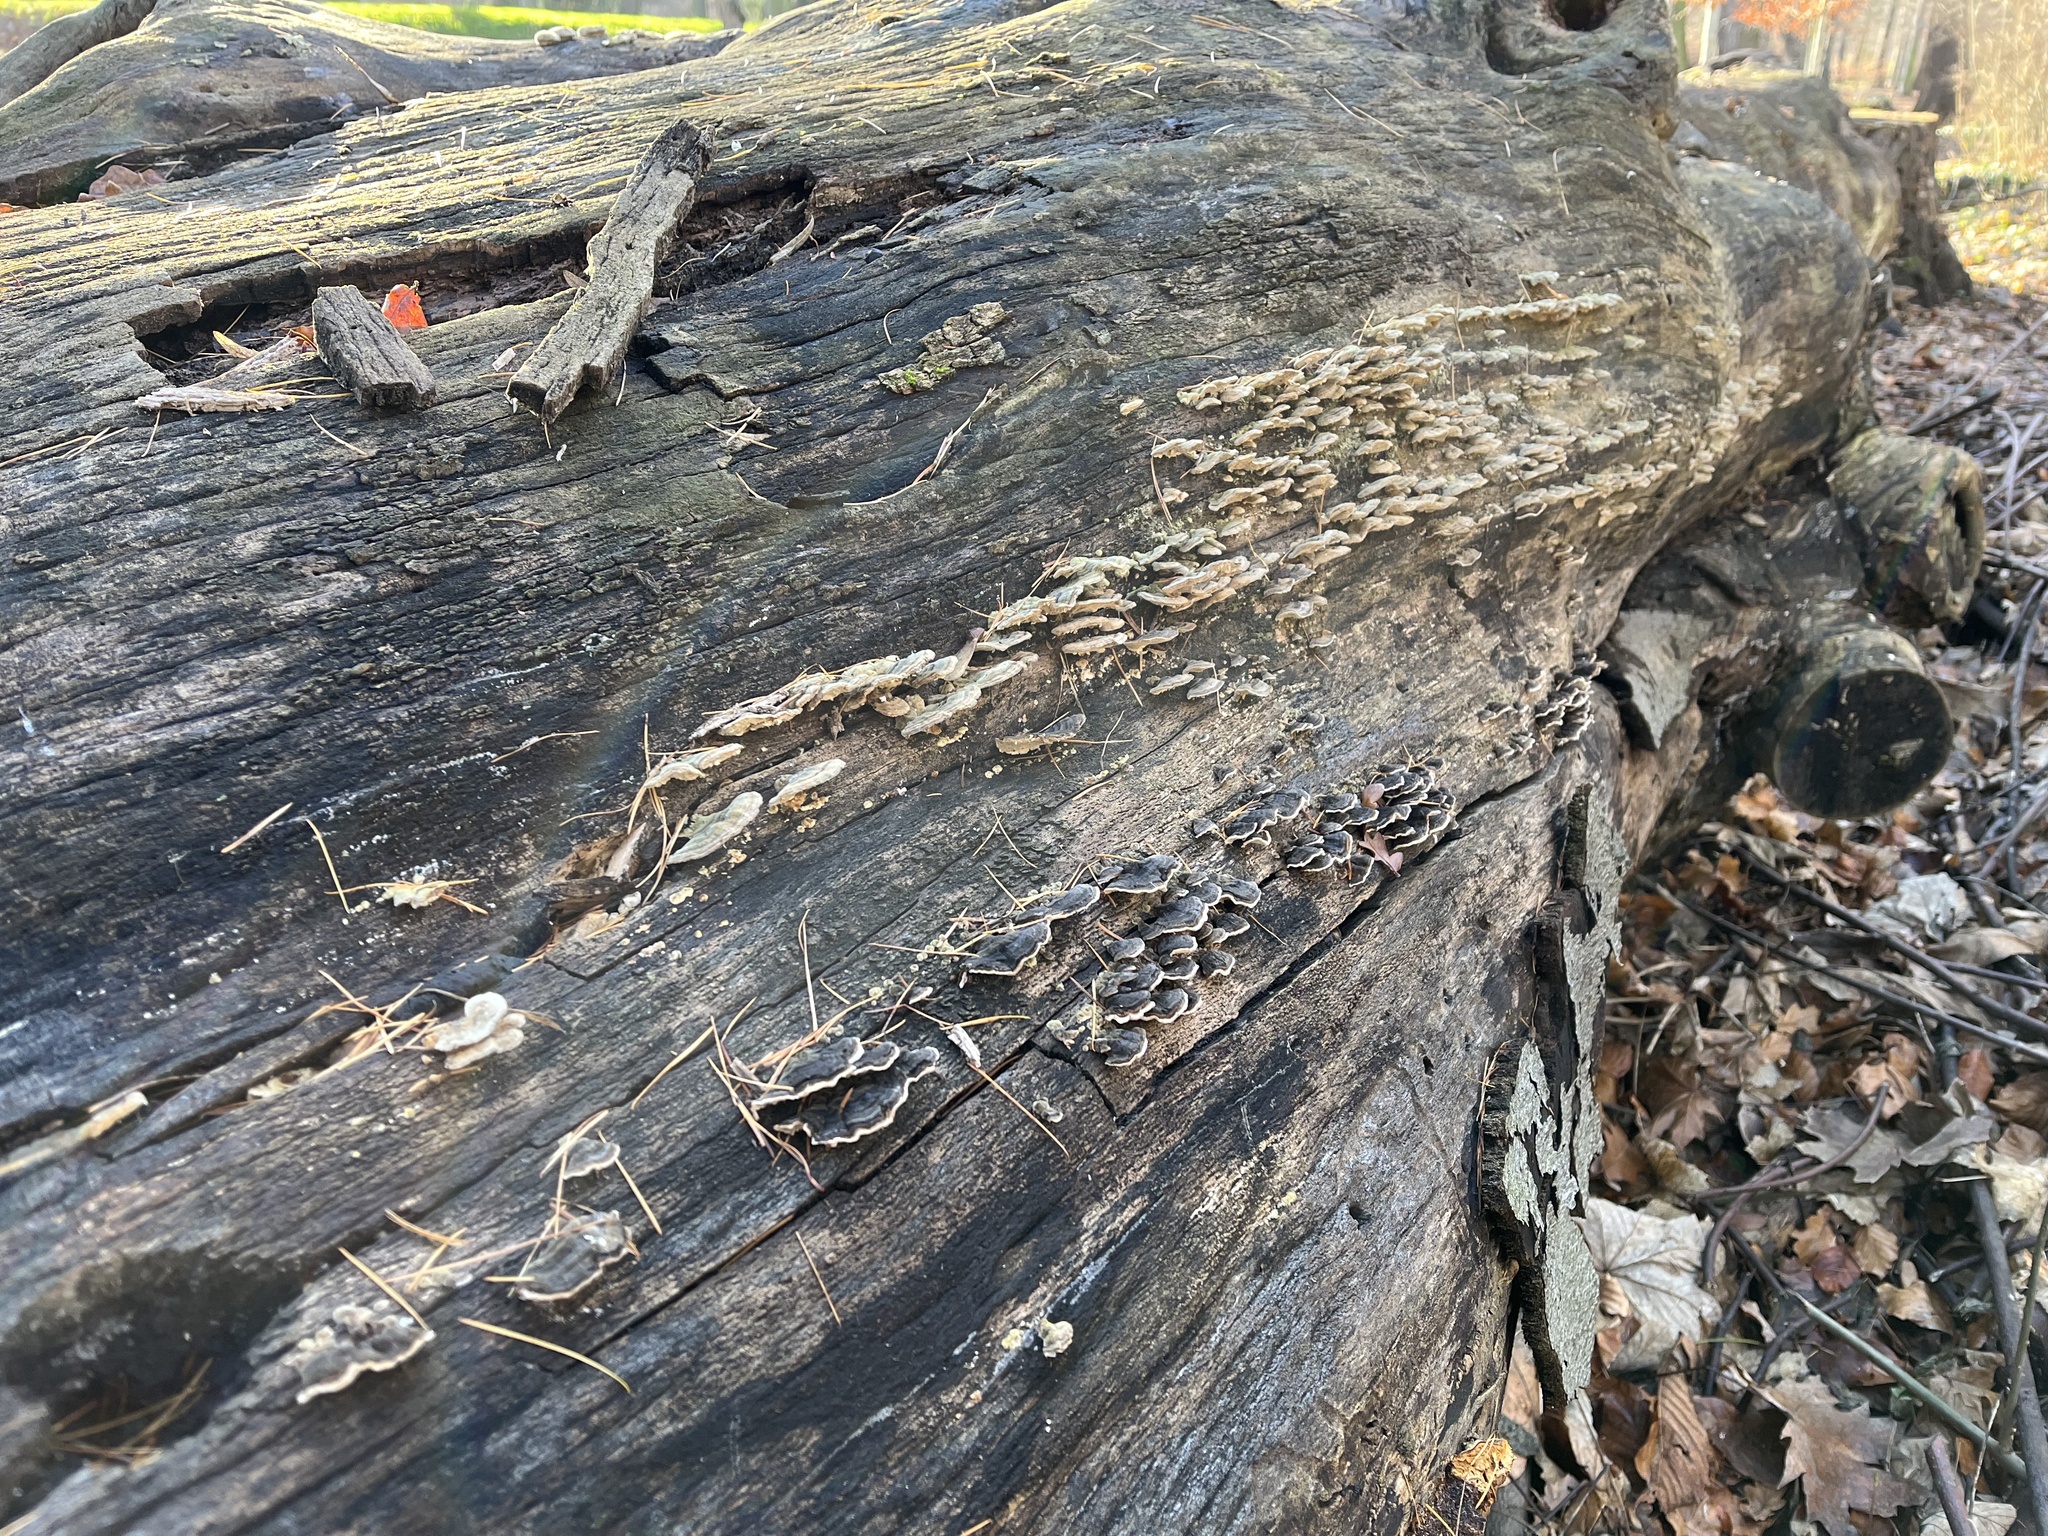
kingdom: Fungi
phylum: Basidiomycota
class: Agaricomycetes
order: Polyporales
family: Polyporaceae
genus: Trametes
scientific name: Trametes versicolor
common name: Turkeytail
